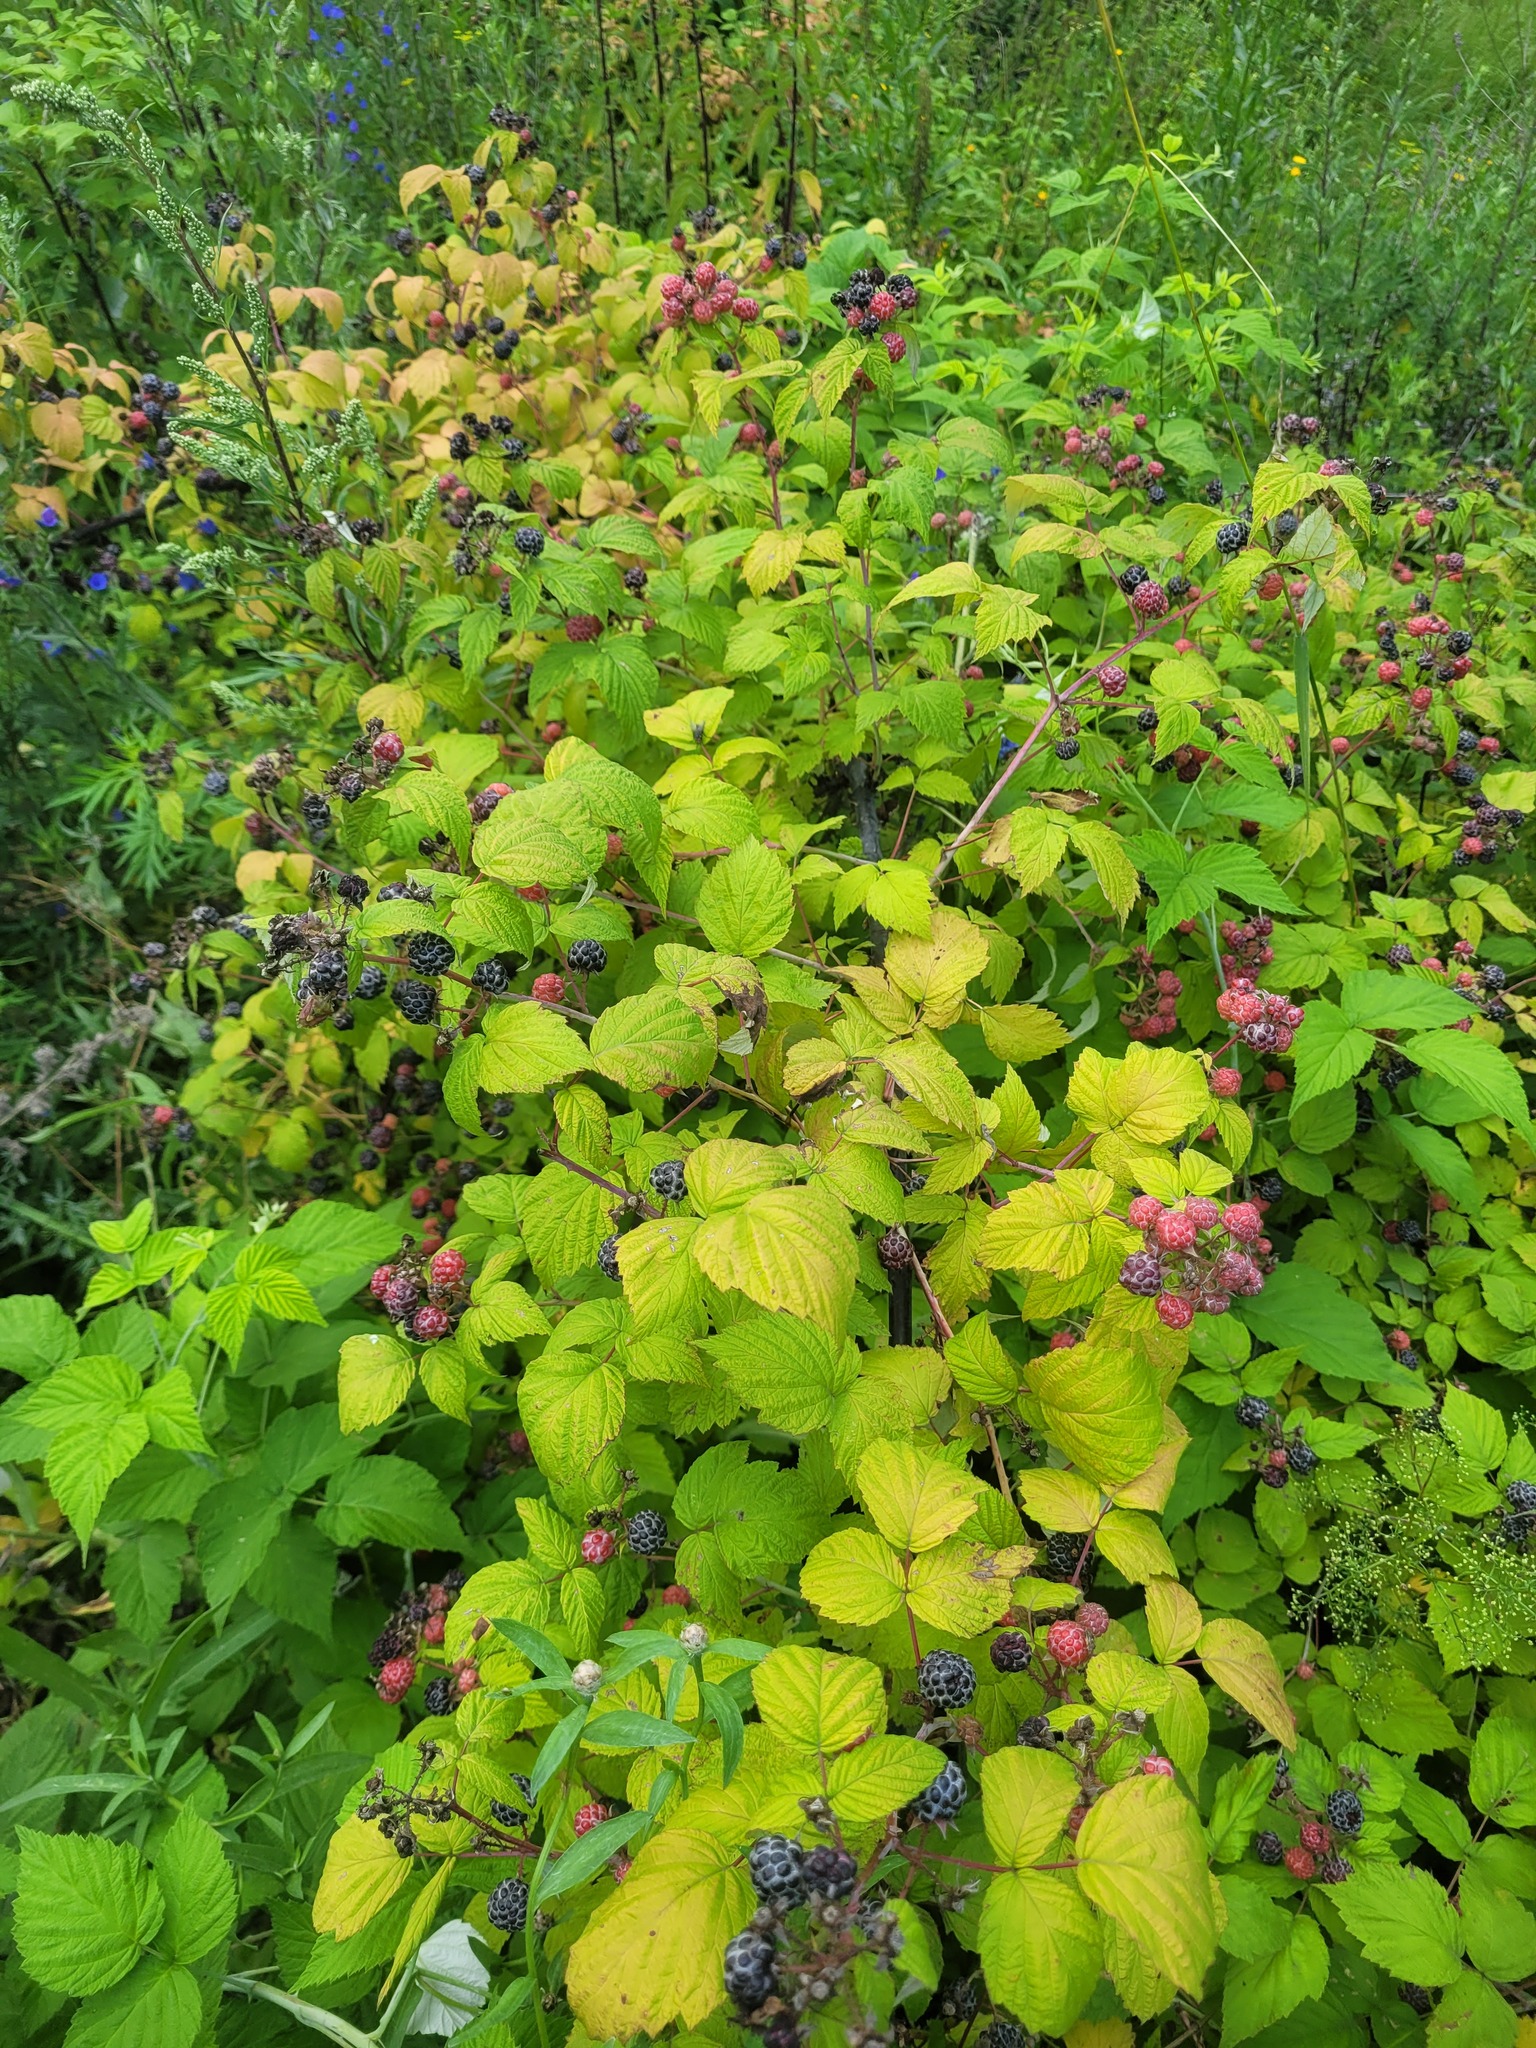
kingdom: Plantae
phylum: Tracheophyta
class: Magnoliopsida
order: Rosales
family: Rosaceae
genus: Rubus
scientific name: Rubus occidentalis
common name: Black raspberry
